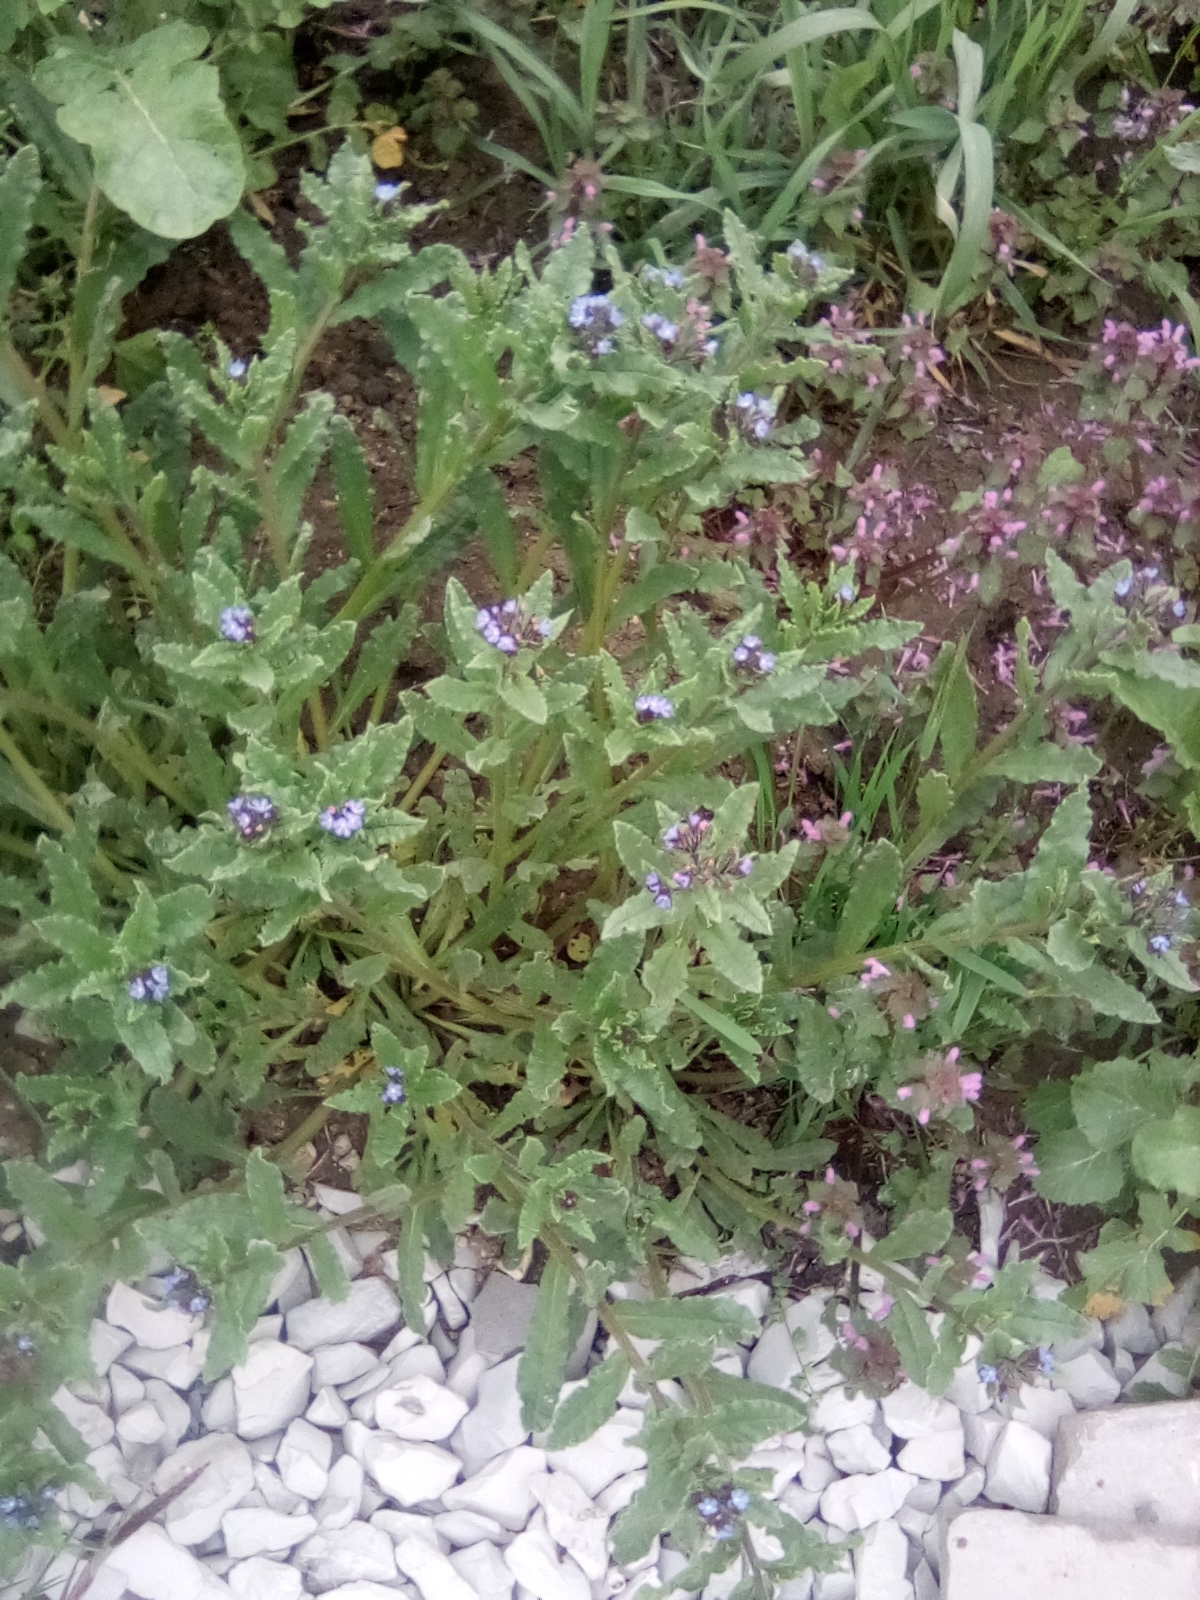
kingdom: Plantae
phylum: Tracheophyta
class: Magnoliopsida
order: Boraginales
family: Boraginaceae
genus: Lycopsis
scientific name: Lycopsis arvensis
